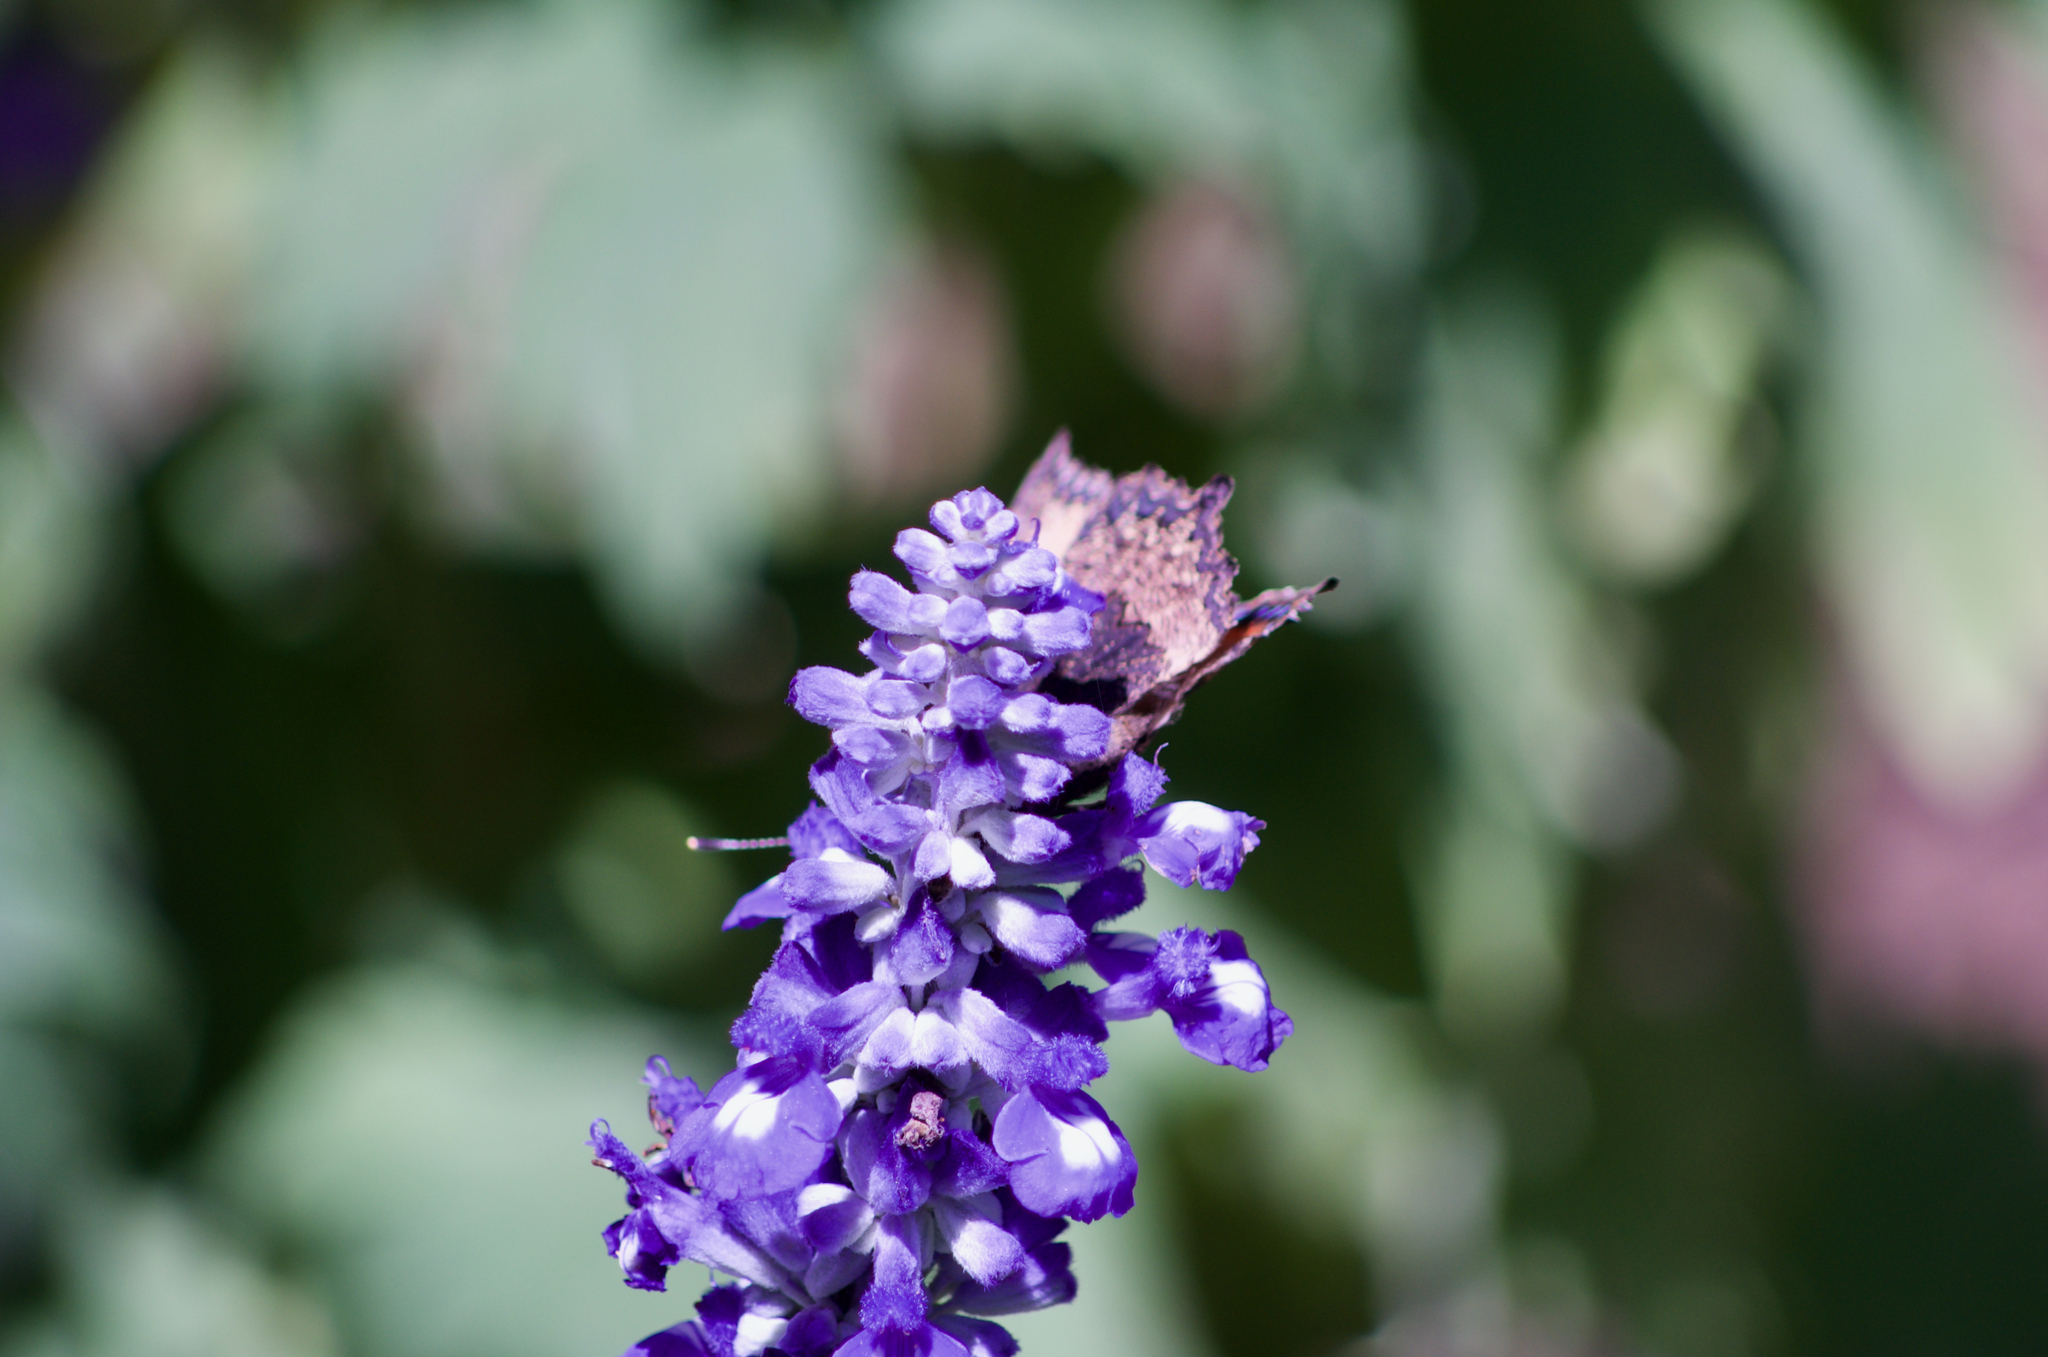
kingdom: Animalia
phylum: Arthropoda
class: Insecta
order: Lepidoptera
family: Nymphalidae
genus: Aglais
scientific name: Aglais urticae
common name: Small tortoiseshell
